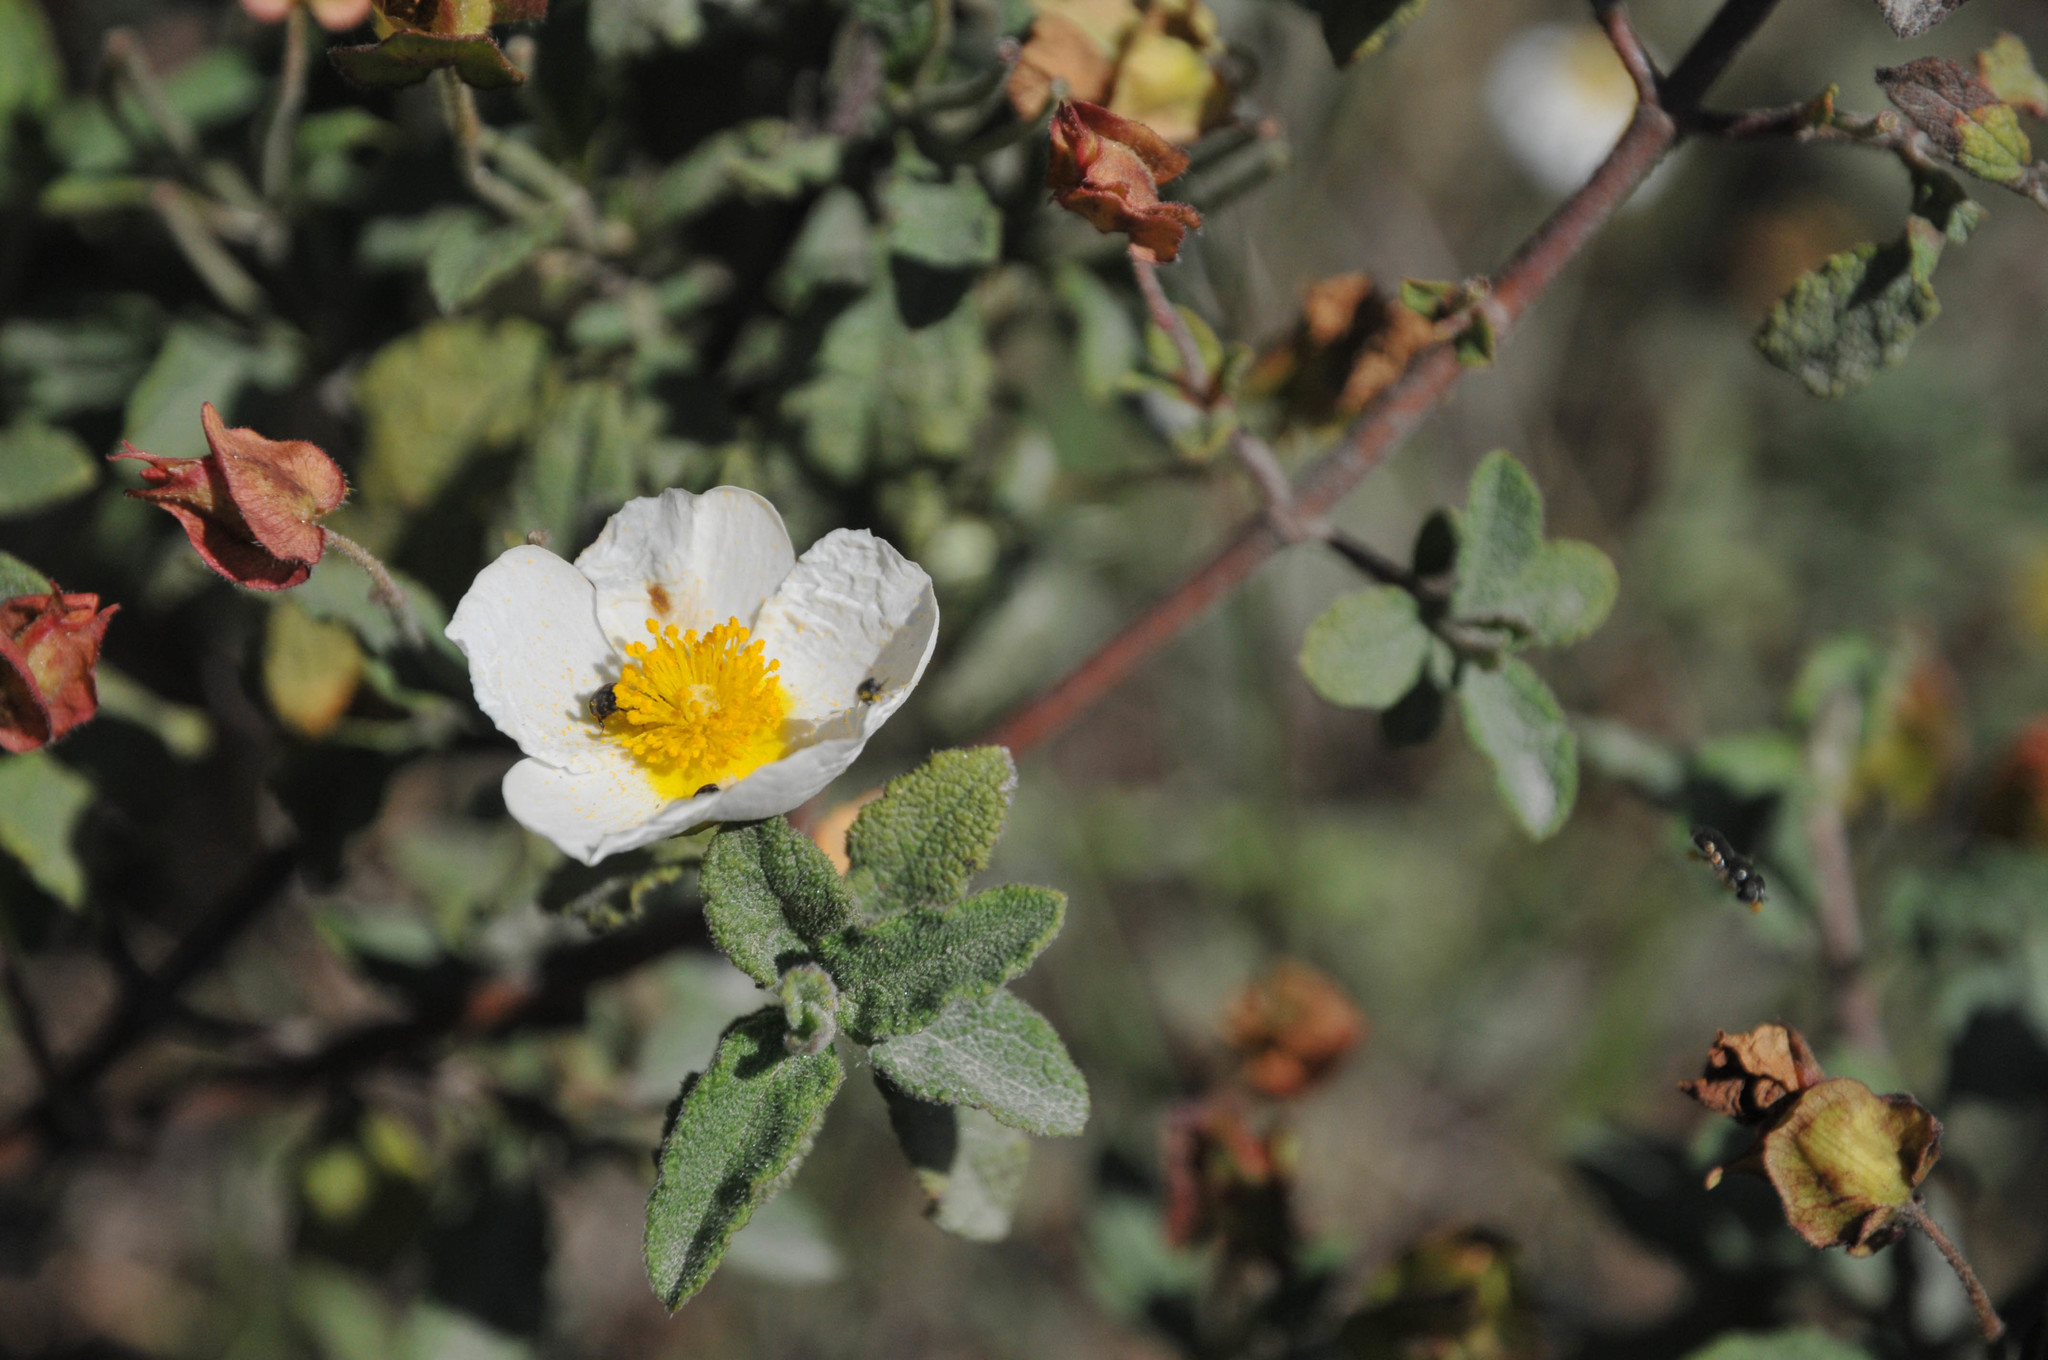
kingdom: Plantae
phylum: Tracheophyta
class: Magnoliopsida
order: Malvales
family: Cistaceae
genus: Cistus
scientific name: Cistus salviifolius
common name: Salvia cistus
